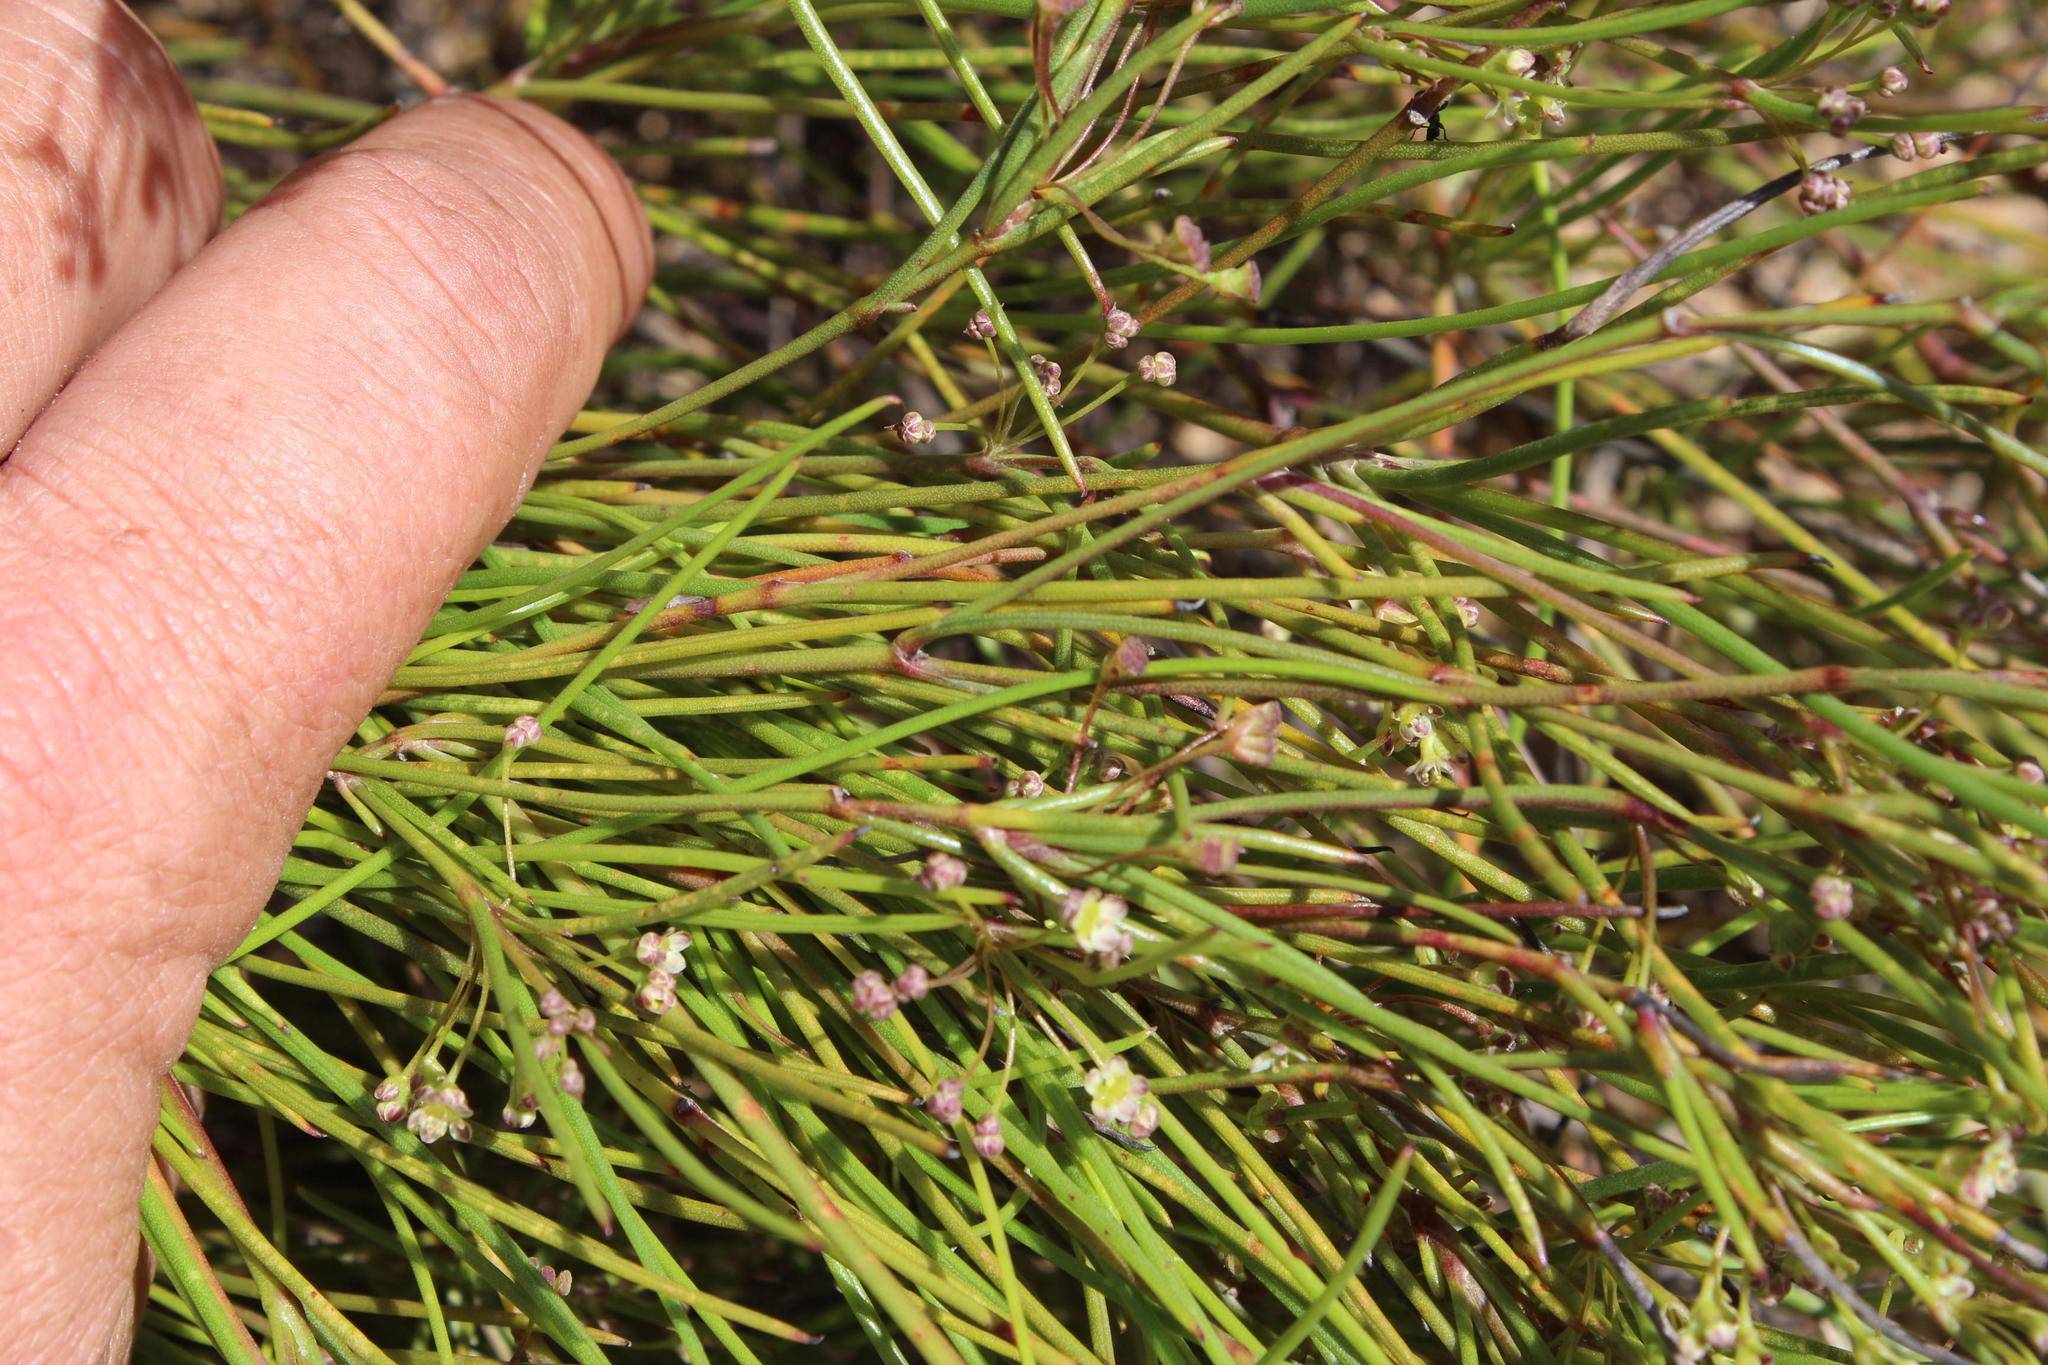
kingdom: Plantae
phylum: Tracheophyta
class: Magnoliopsida
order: Apiales
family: Apiaceae
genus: Centella
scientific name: Centella macrocarpa
